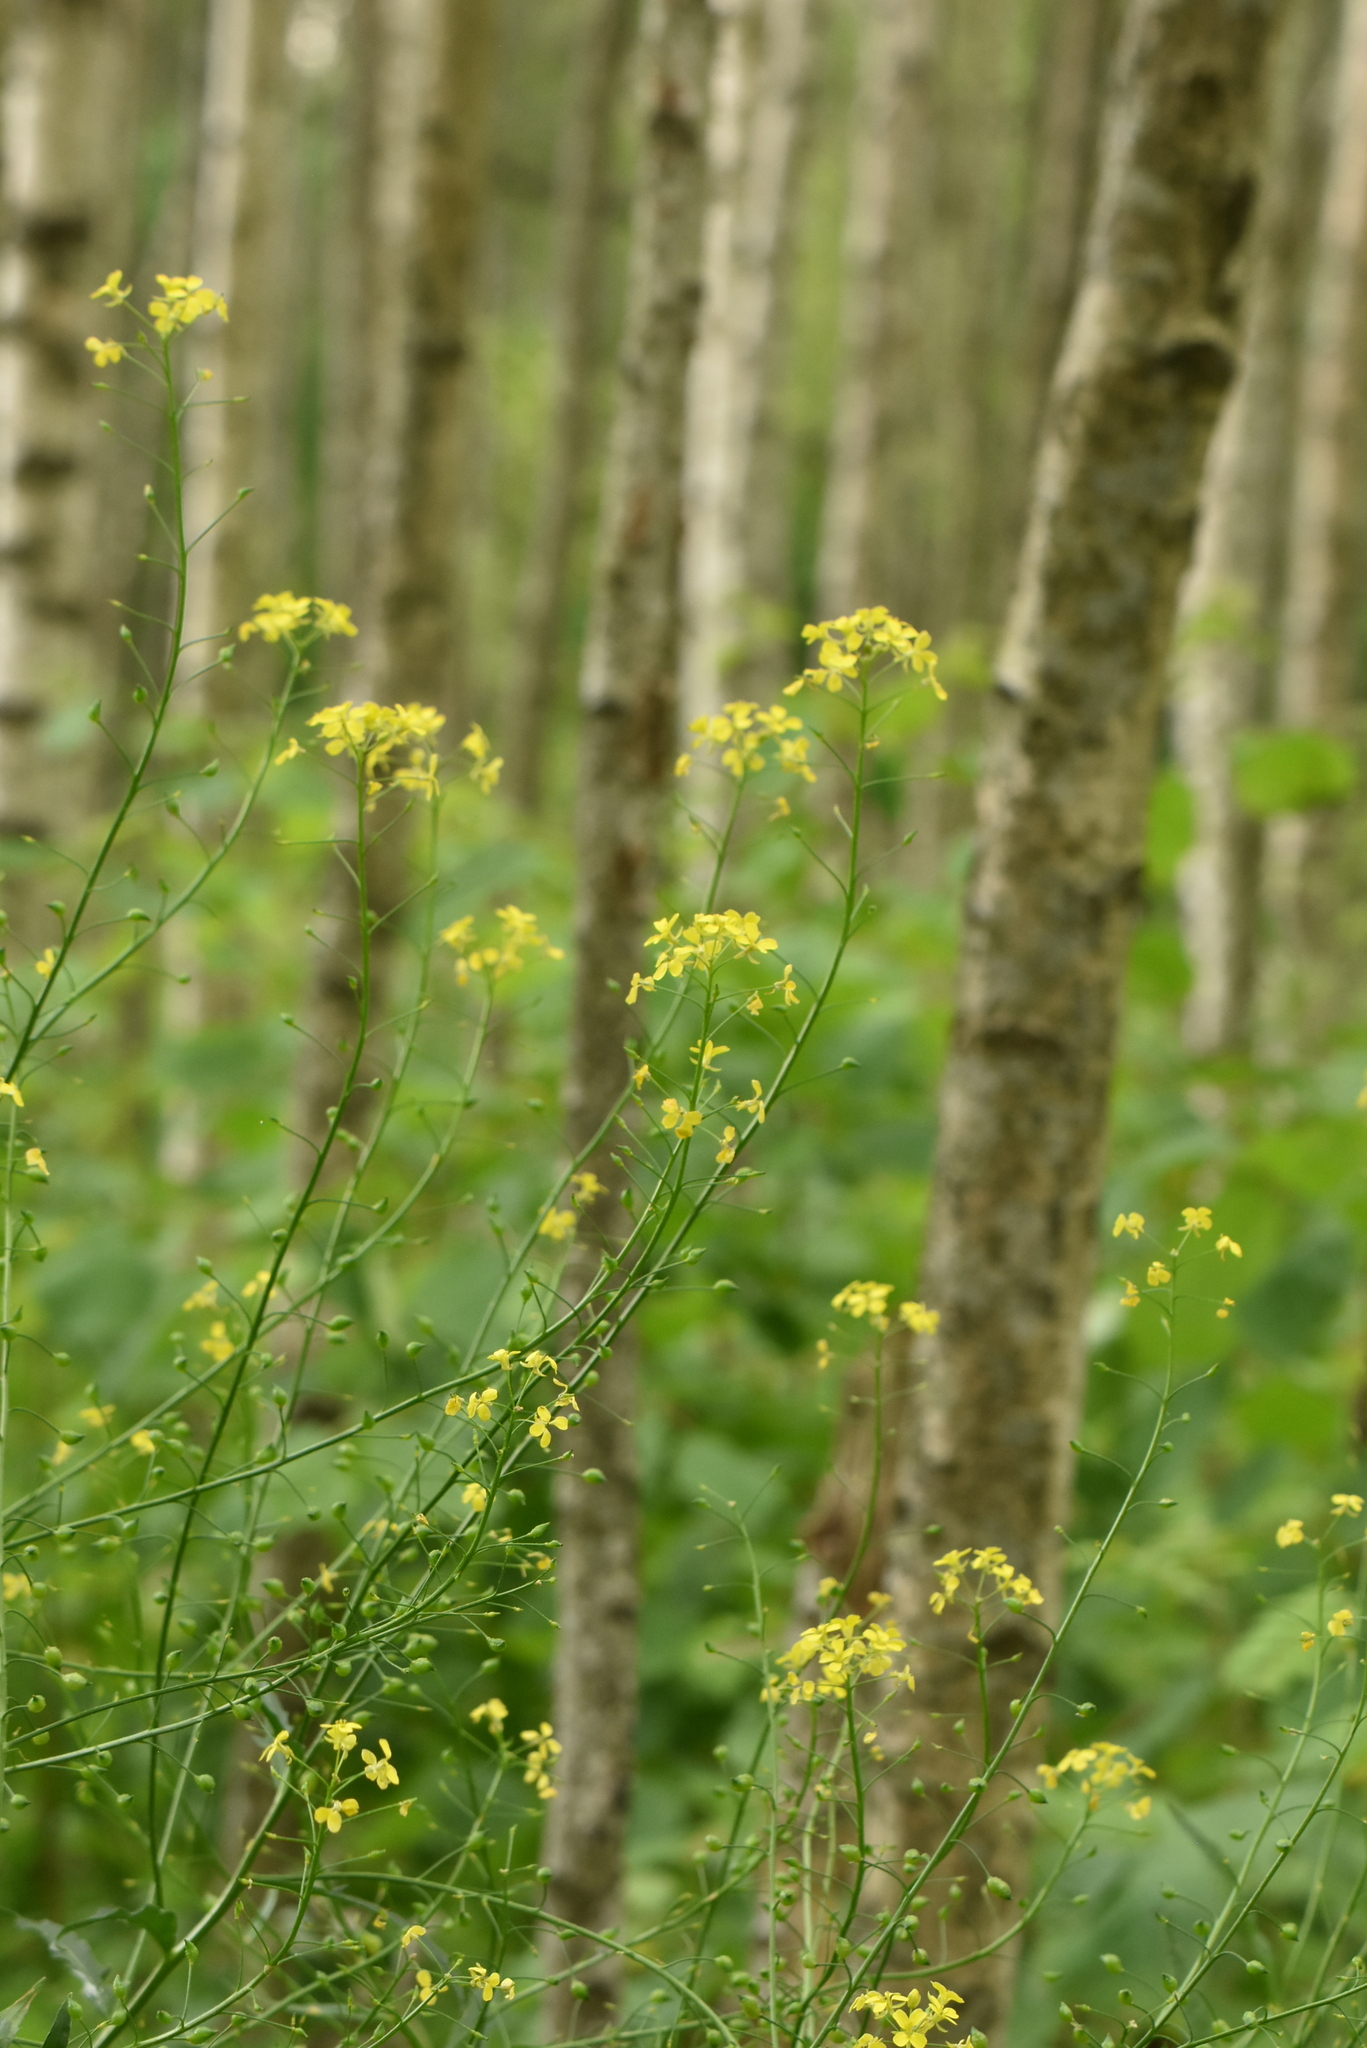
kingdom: Plantae
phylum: Tracheophyta
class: Magnoliopsida
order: Brassicales
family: Brassicaceae
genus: Bunias
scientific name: Bunias orientalis
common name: Warty-cabbage
